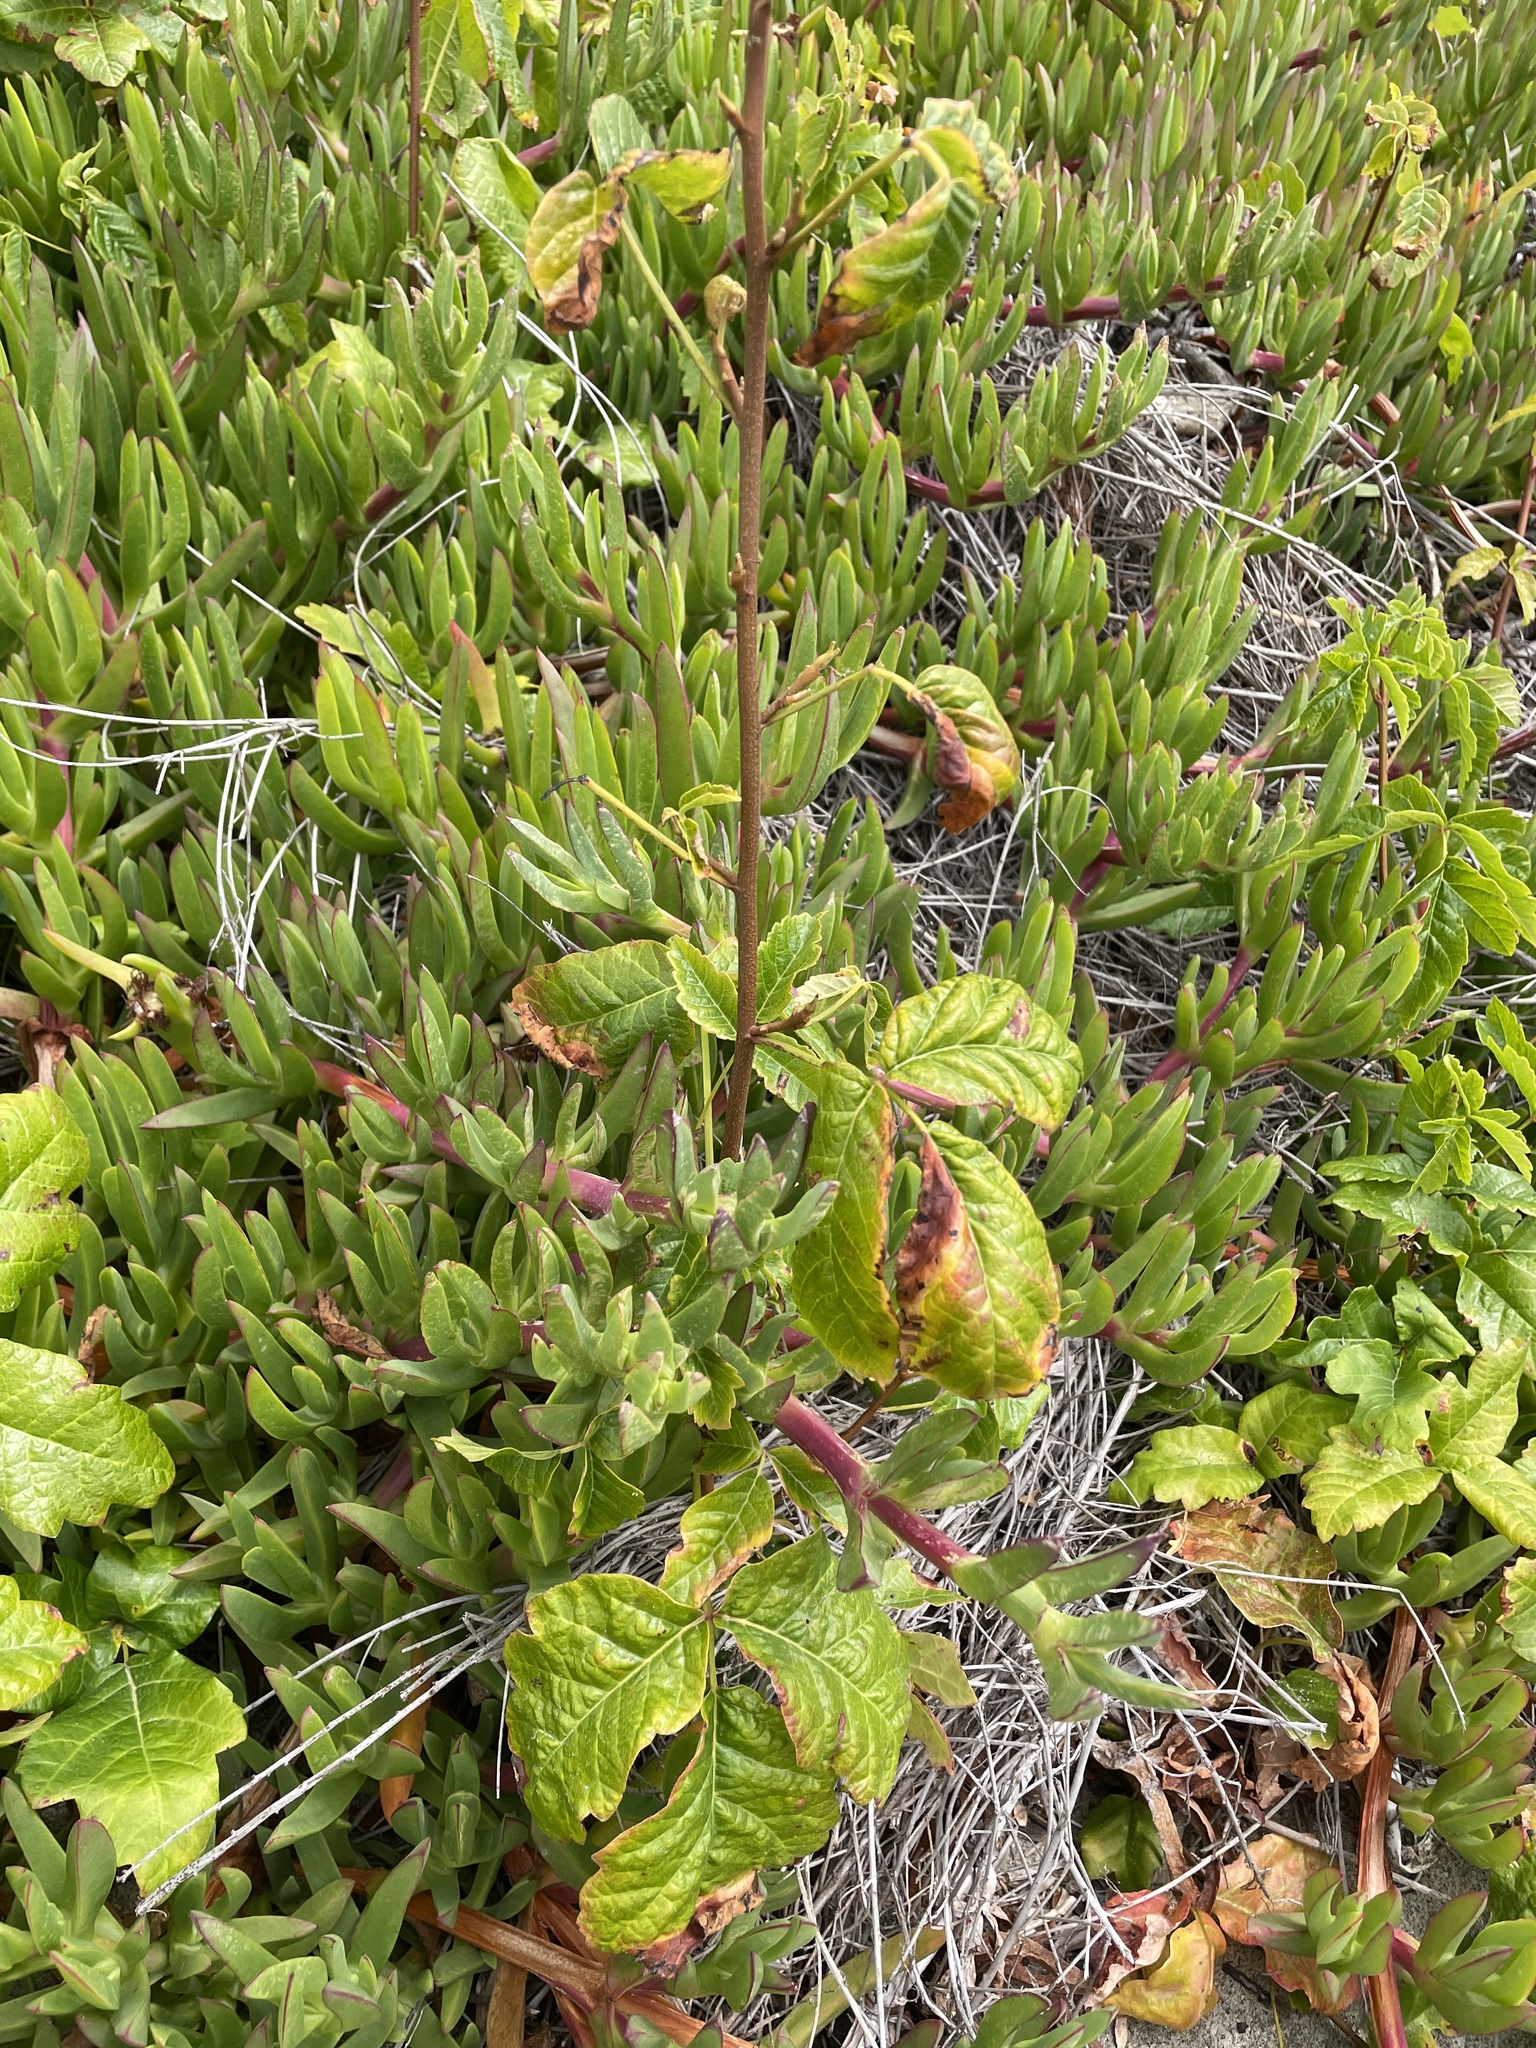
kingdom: Plantae
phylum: Tracheophyta
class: Magnoliopsida
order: Sapindales
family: Anacardiaceae
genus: Toxicodendron
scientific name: Toxicodendron diversilobum
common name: Pacific poison-oak
